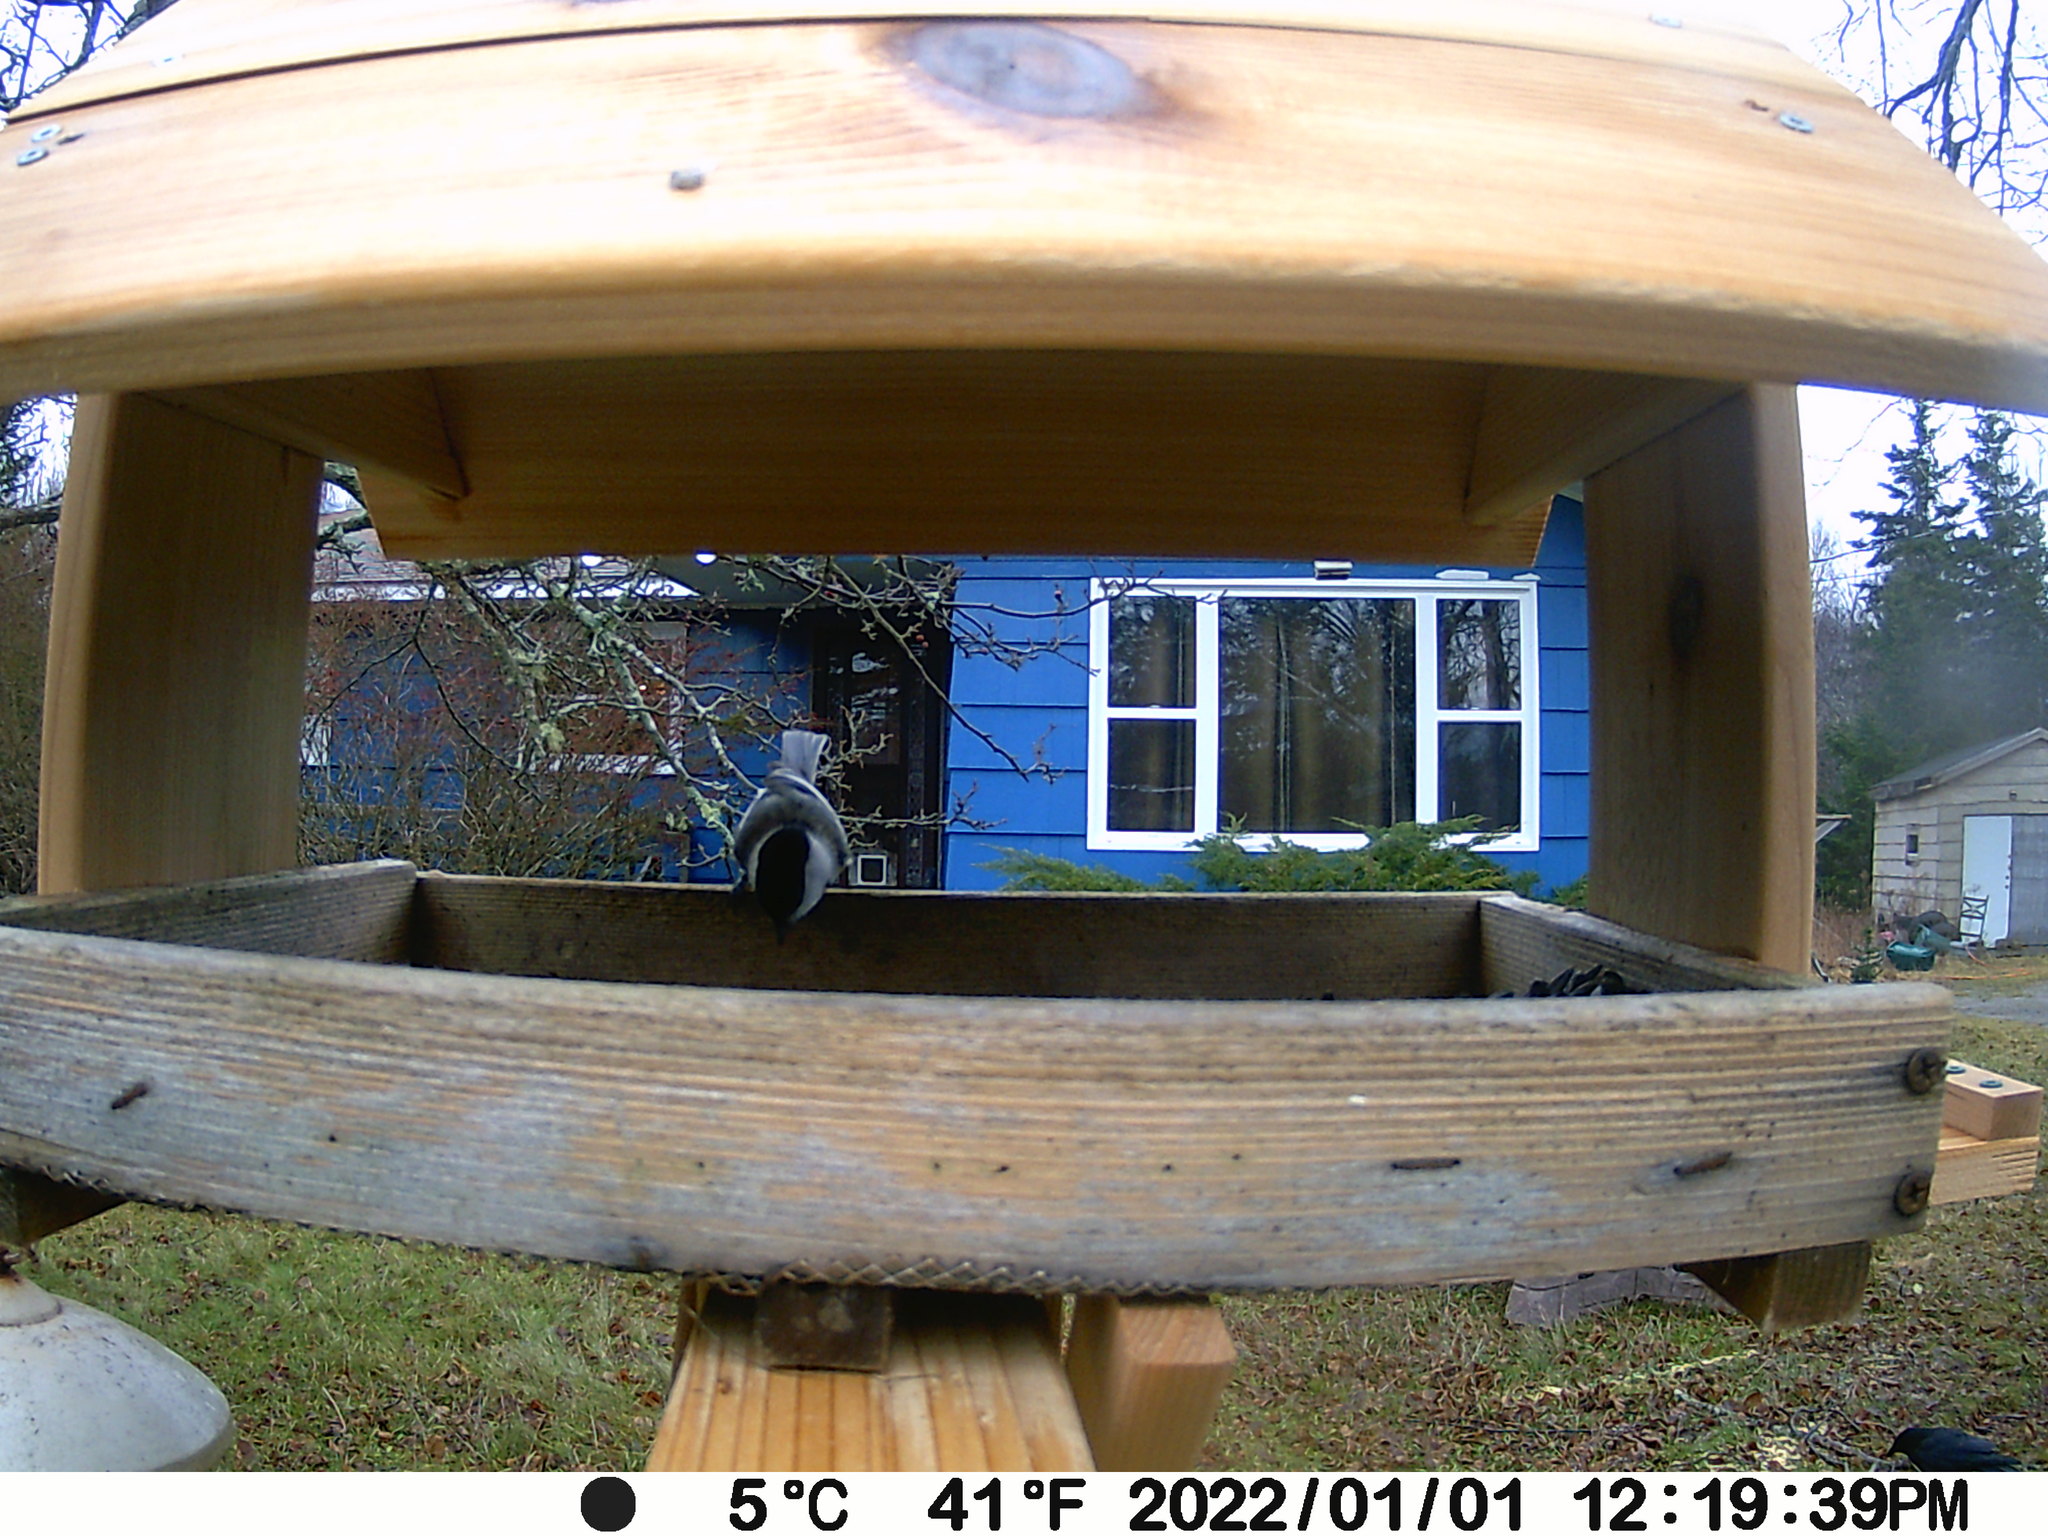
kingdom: Animalia
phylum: Chordata
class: Aves
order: Passeriformes
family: Corvidae
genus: Corvus
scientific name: Corvus brachyrhynchos
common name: American crow
